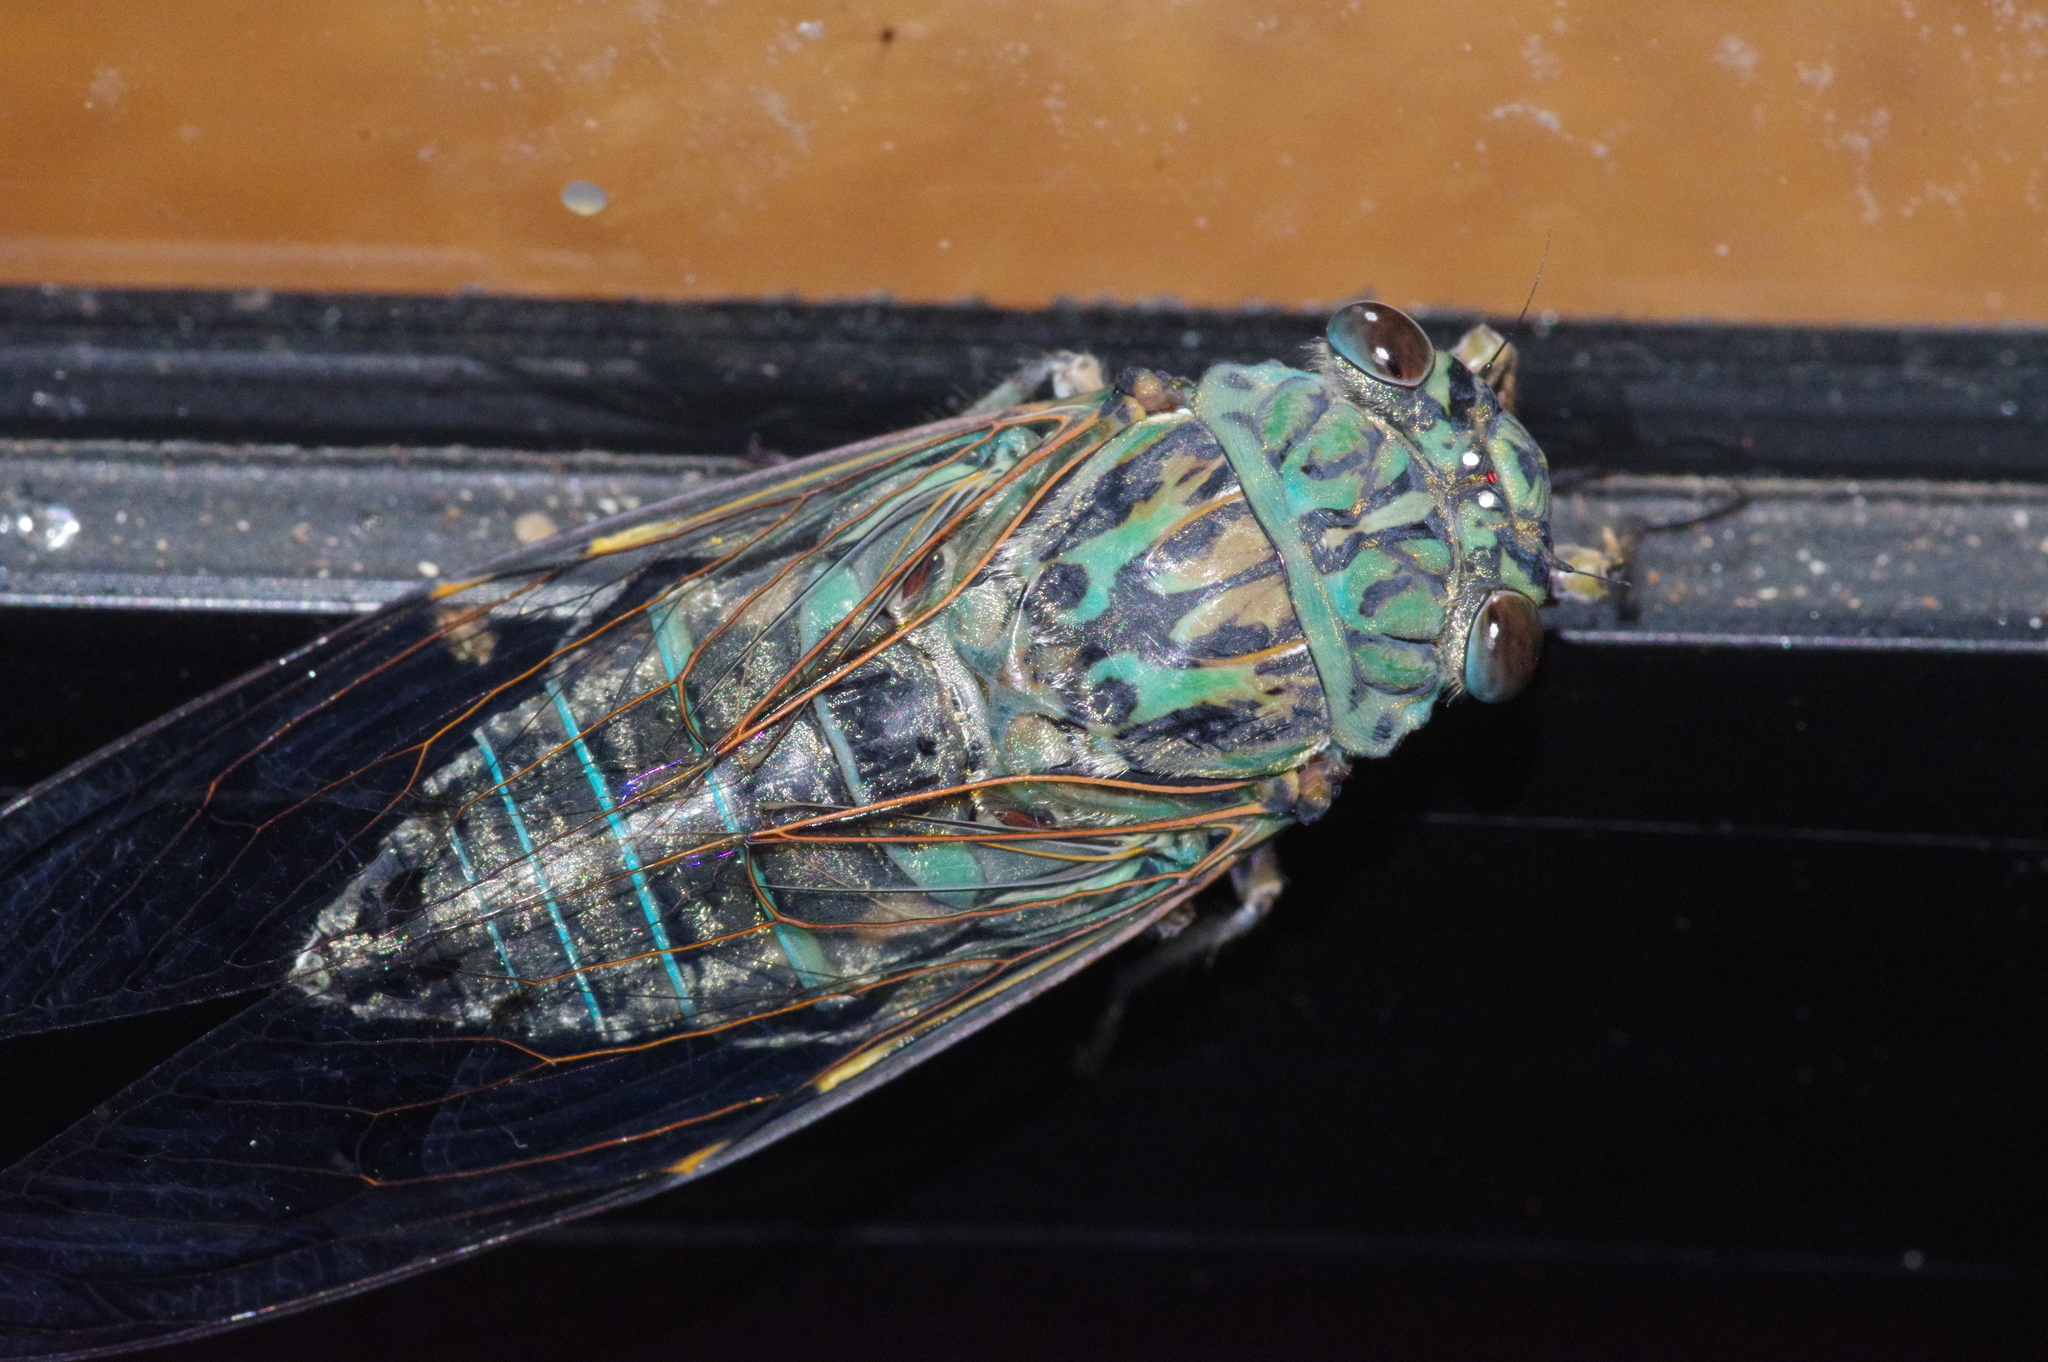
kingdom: Animalia
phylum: Arthropoda
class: Insecta
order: Hemiptera
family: Cicadidae
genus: Meimuna
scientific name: Meimuna oshimensis
